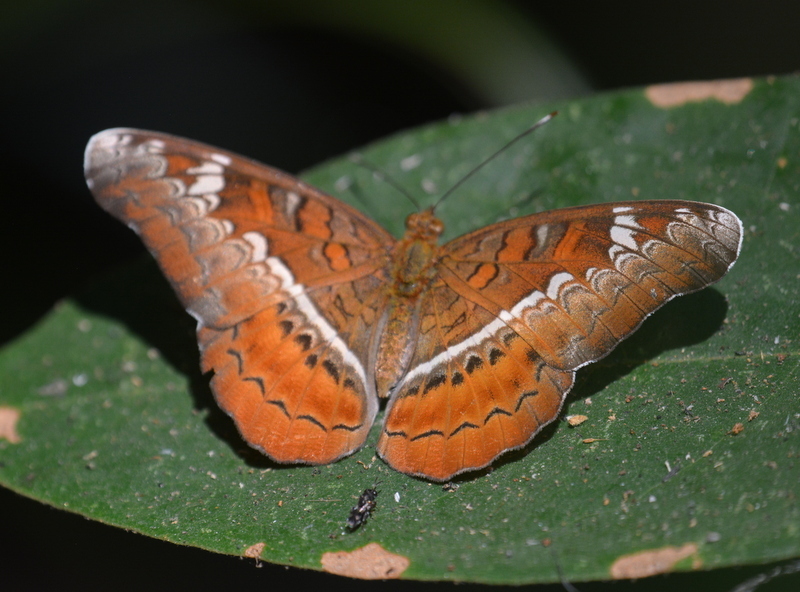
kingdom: Animalia
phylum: Arthropoda
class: Insecta
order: Lepidoptera
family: Nymphalidae
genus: Lebadea
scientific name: Lebadea martha
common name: Knight
